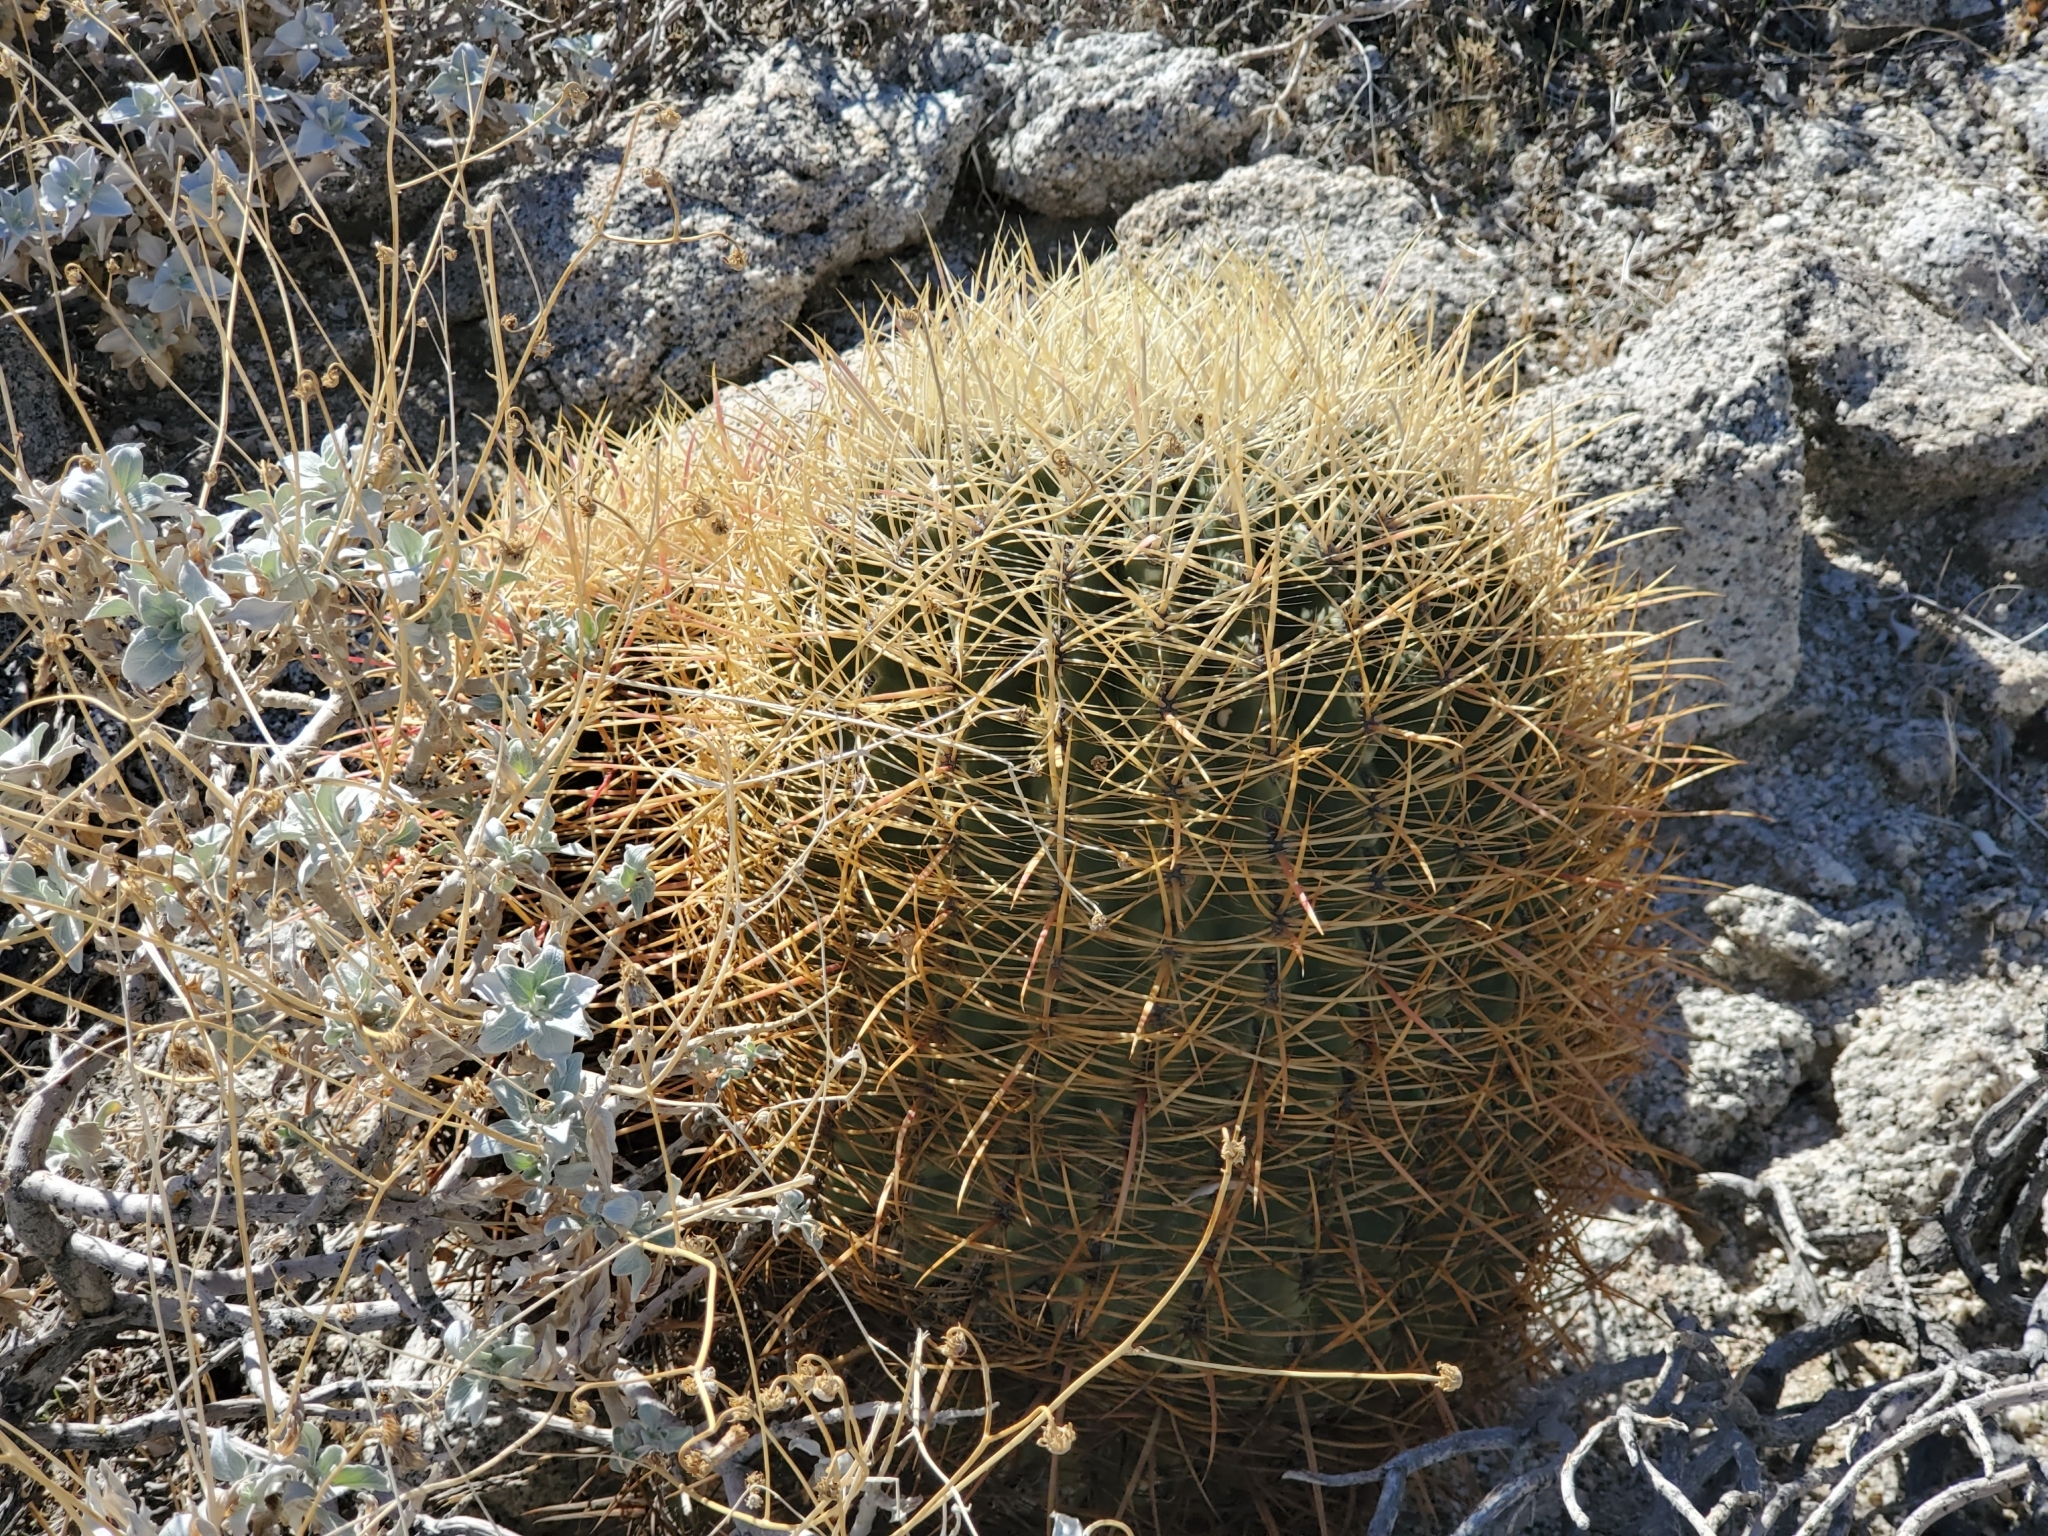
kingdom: Plantae
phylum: Tracheophyta
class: Magnoliopsida
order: Caryophyllales
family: Cactaceae
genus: Ferocactus
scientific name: Ferocactus cylindraceus
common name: California barrel cactus
